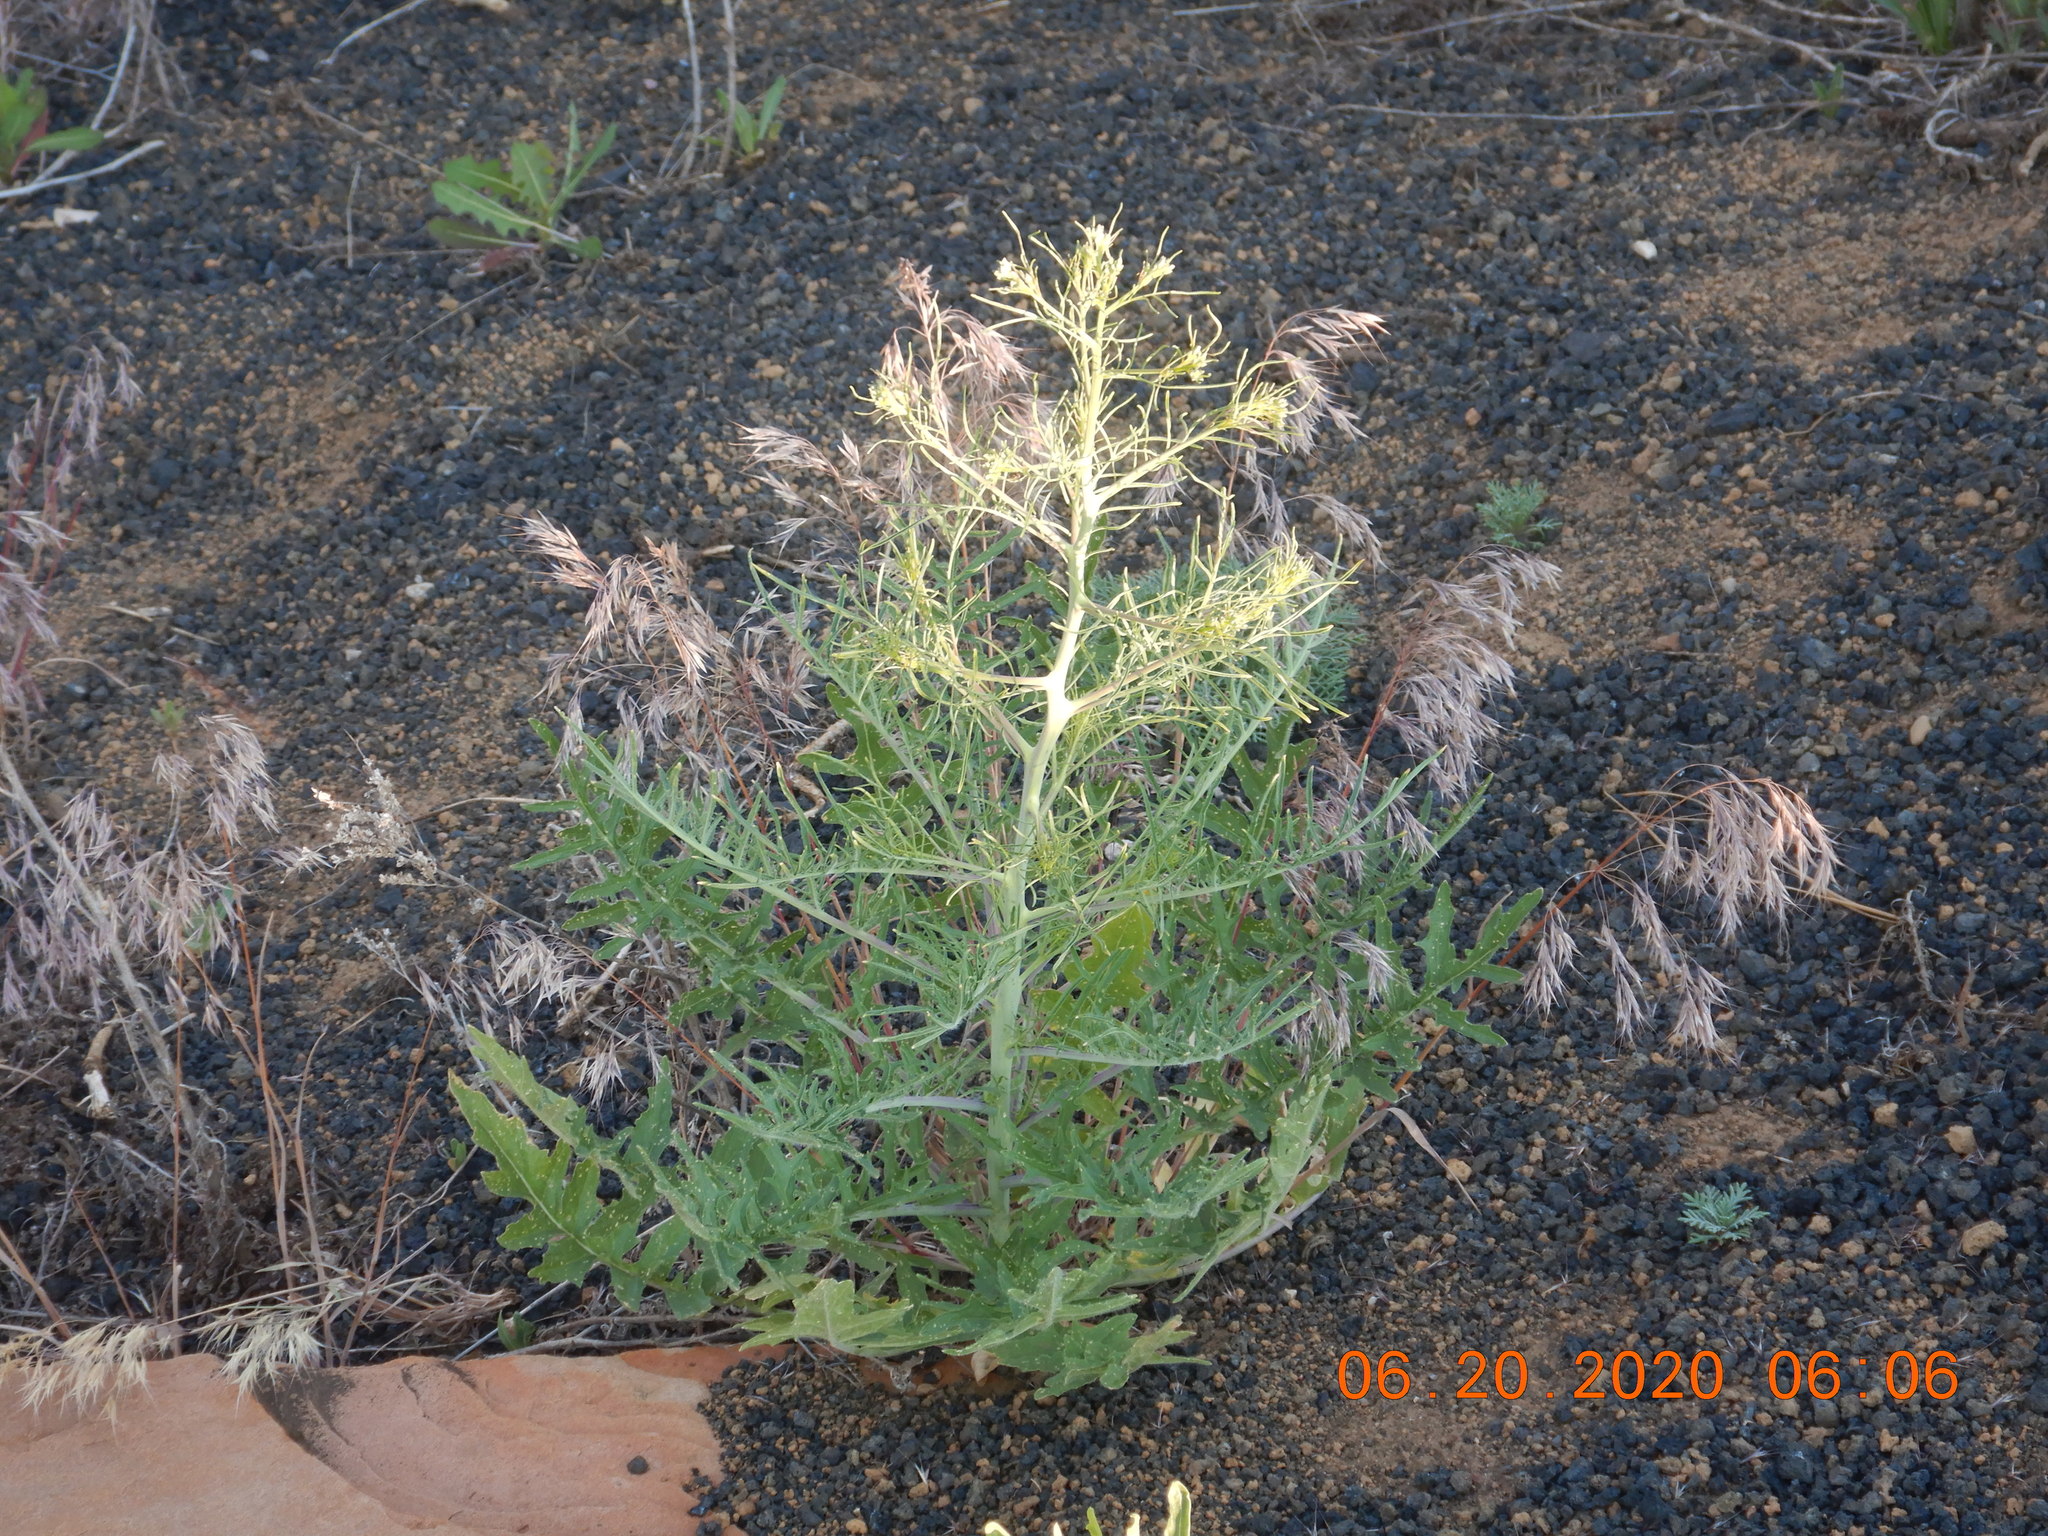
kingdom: Plantae
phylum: Tracheophyta
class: Magnoliopsida
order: Brassicales
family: Brassicaceae
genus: Sisymbrium
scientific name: Sisymbrium altissimum
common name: Tall rocket
